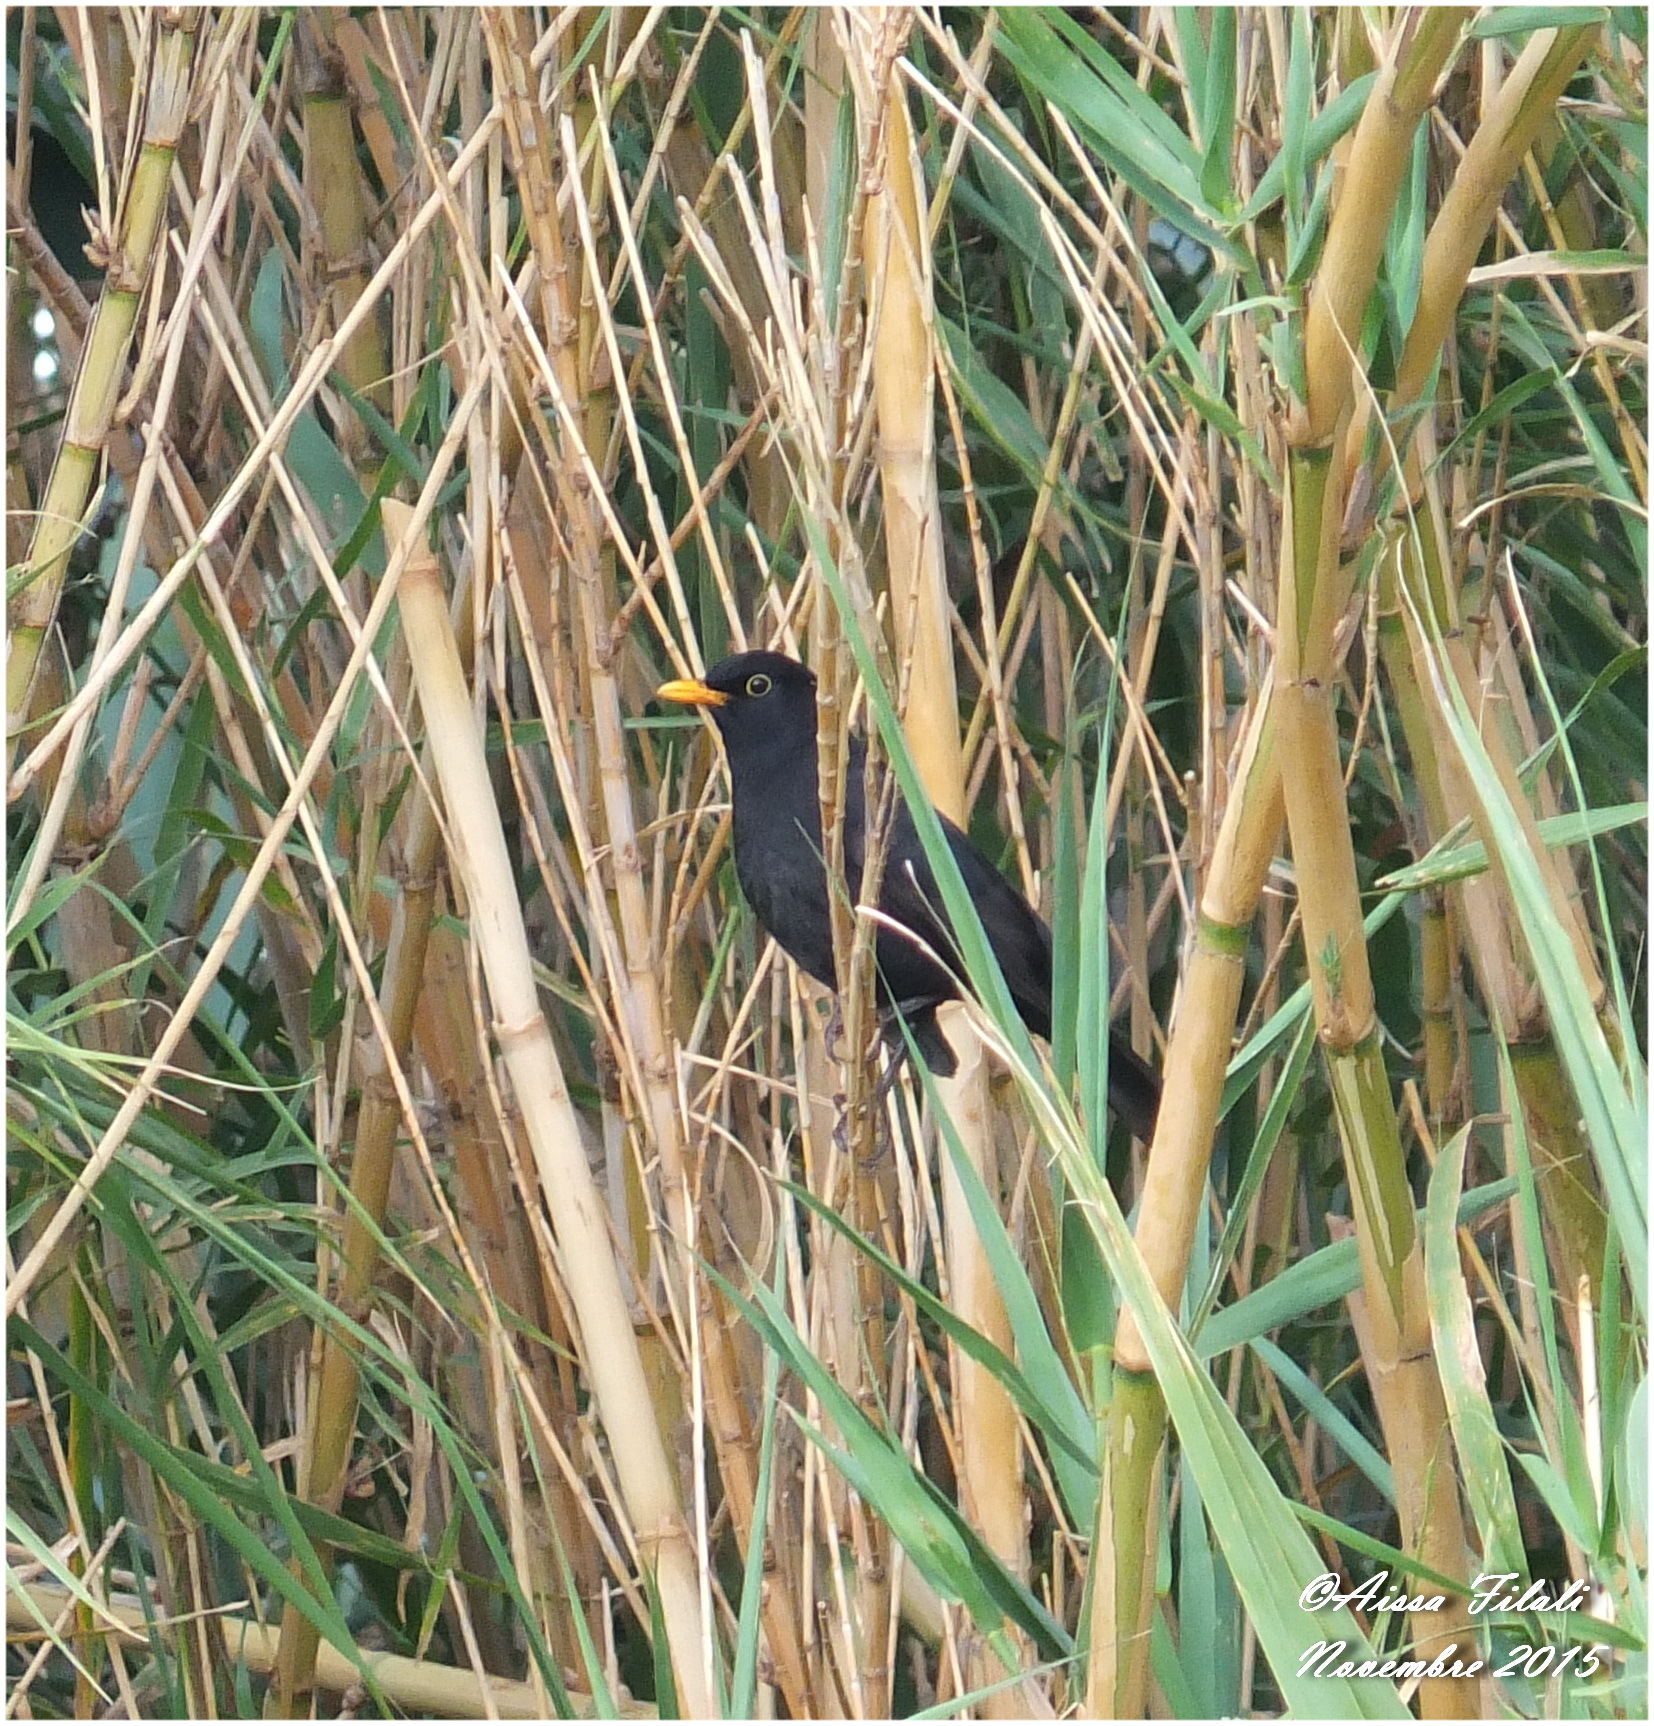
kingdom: Animalia
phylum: Chordata
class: Aves
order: Passeriformes
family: Turdidae
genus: Turdus
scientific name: Turdus merula
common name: Common blackbird
